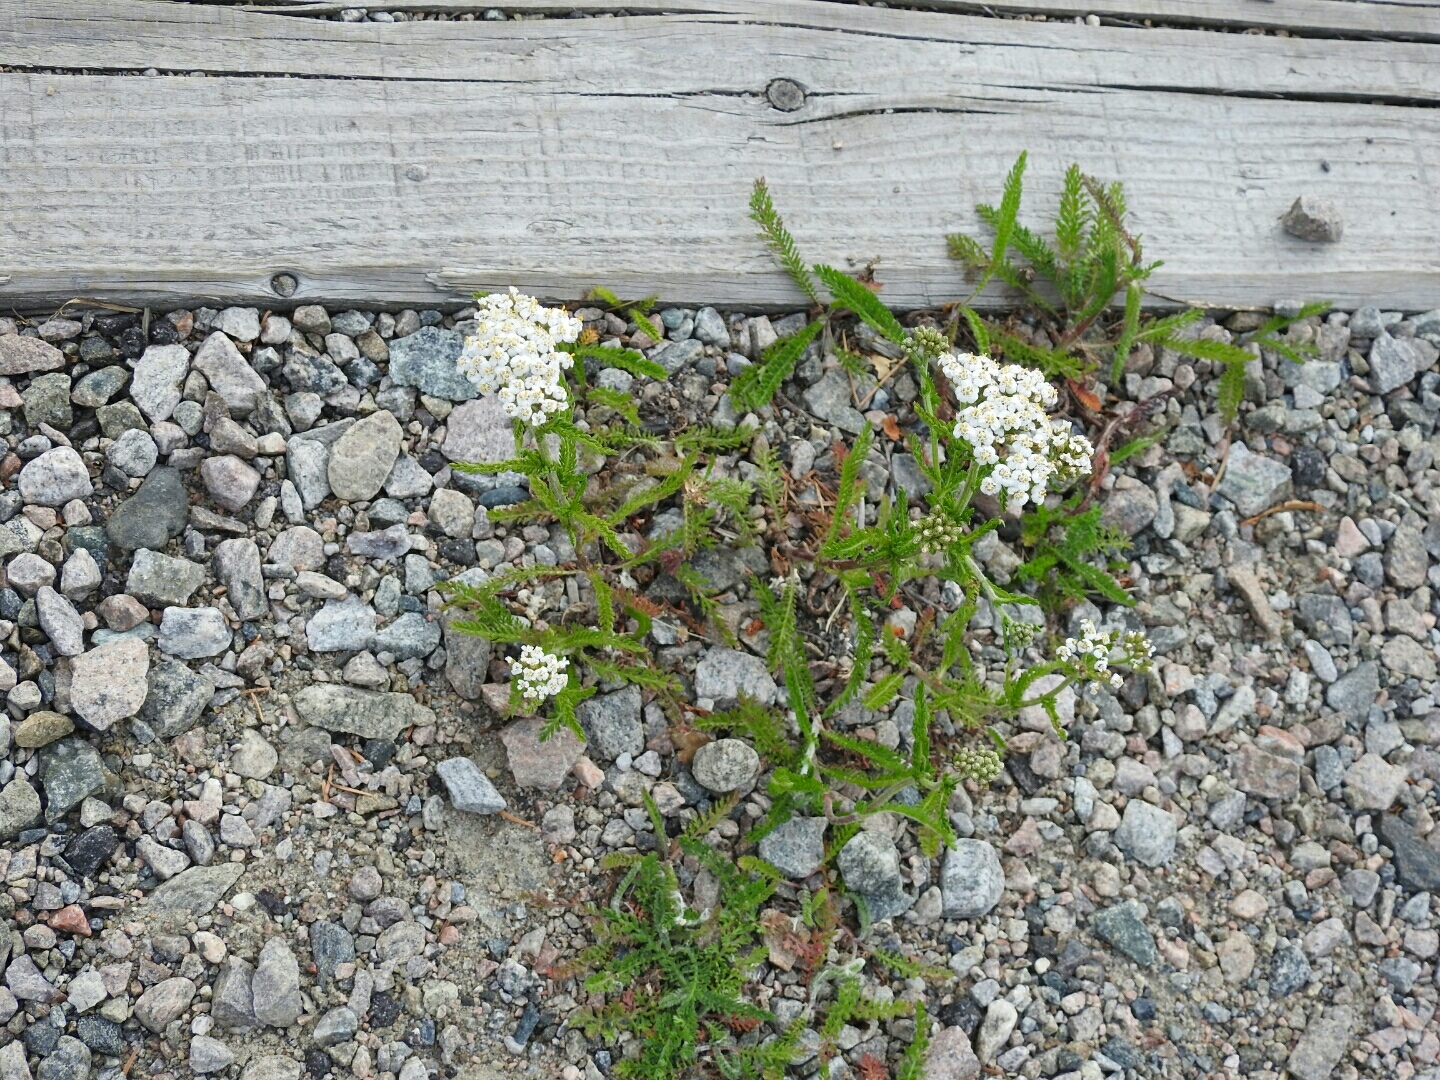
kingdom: Plantae
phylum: Tracheophyta
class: Magnoliopsida
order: Asterales
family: Asteraceae
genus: Achillea
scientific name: Achillea millefolium
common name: Yarrow
